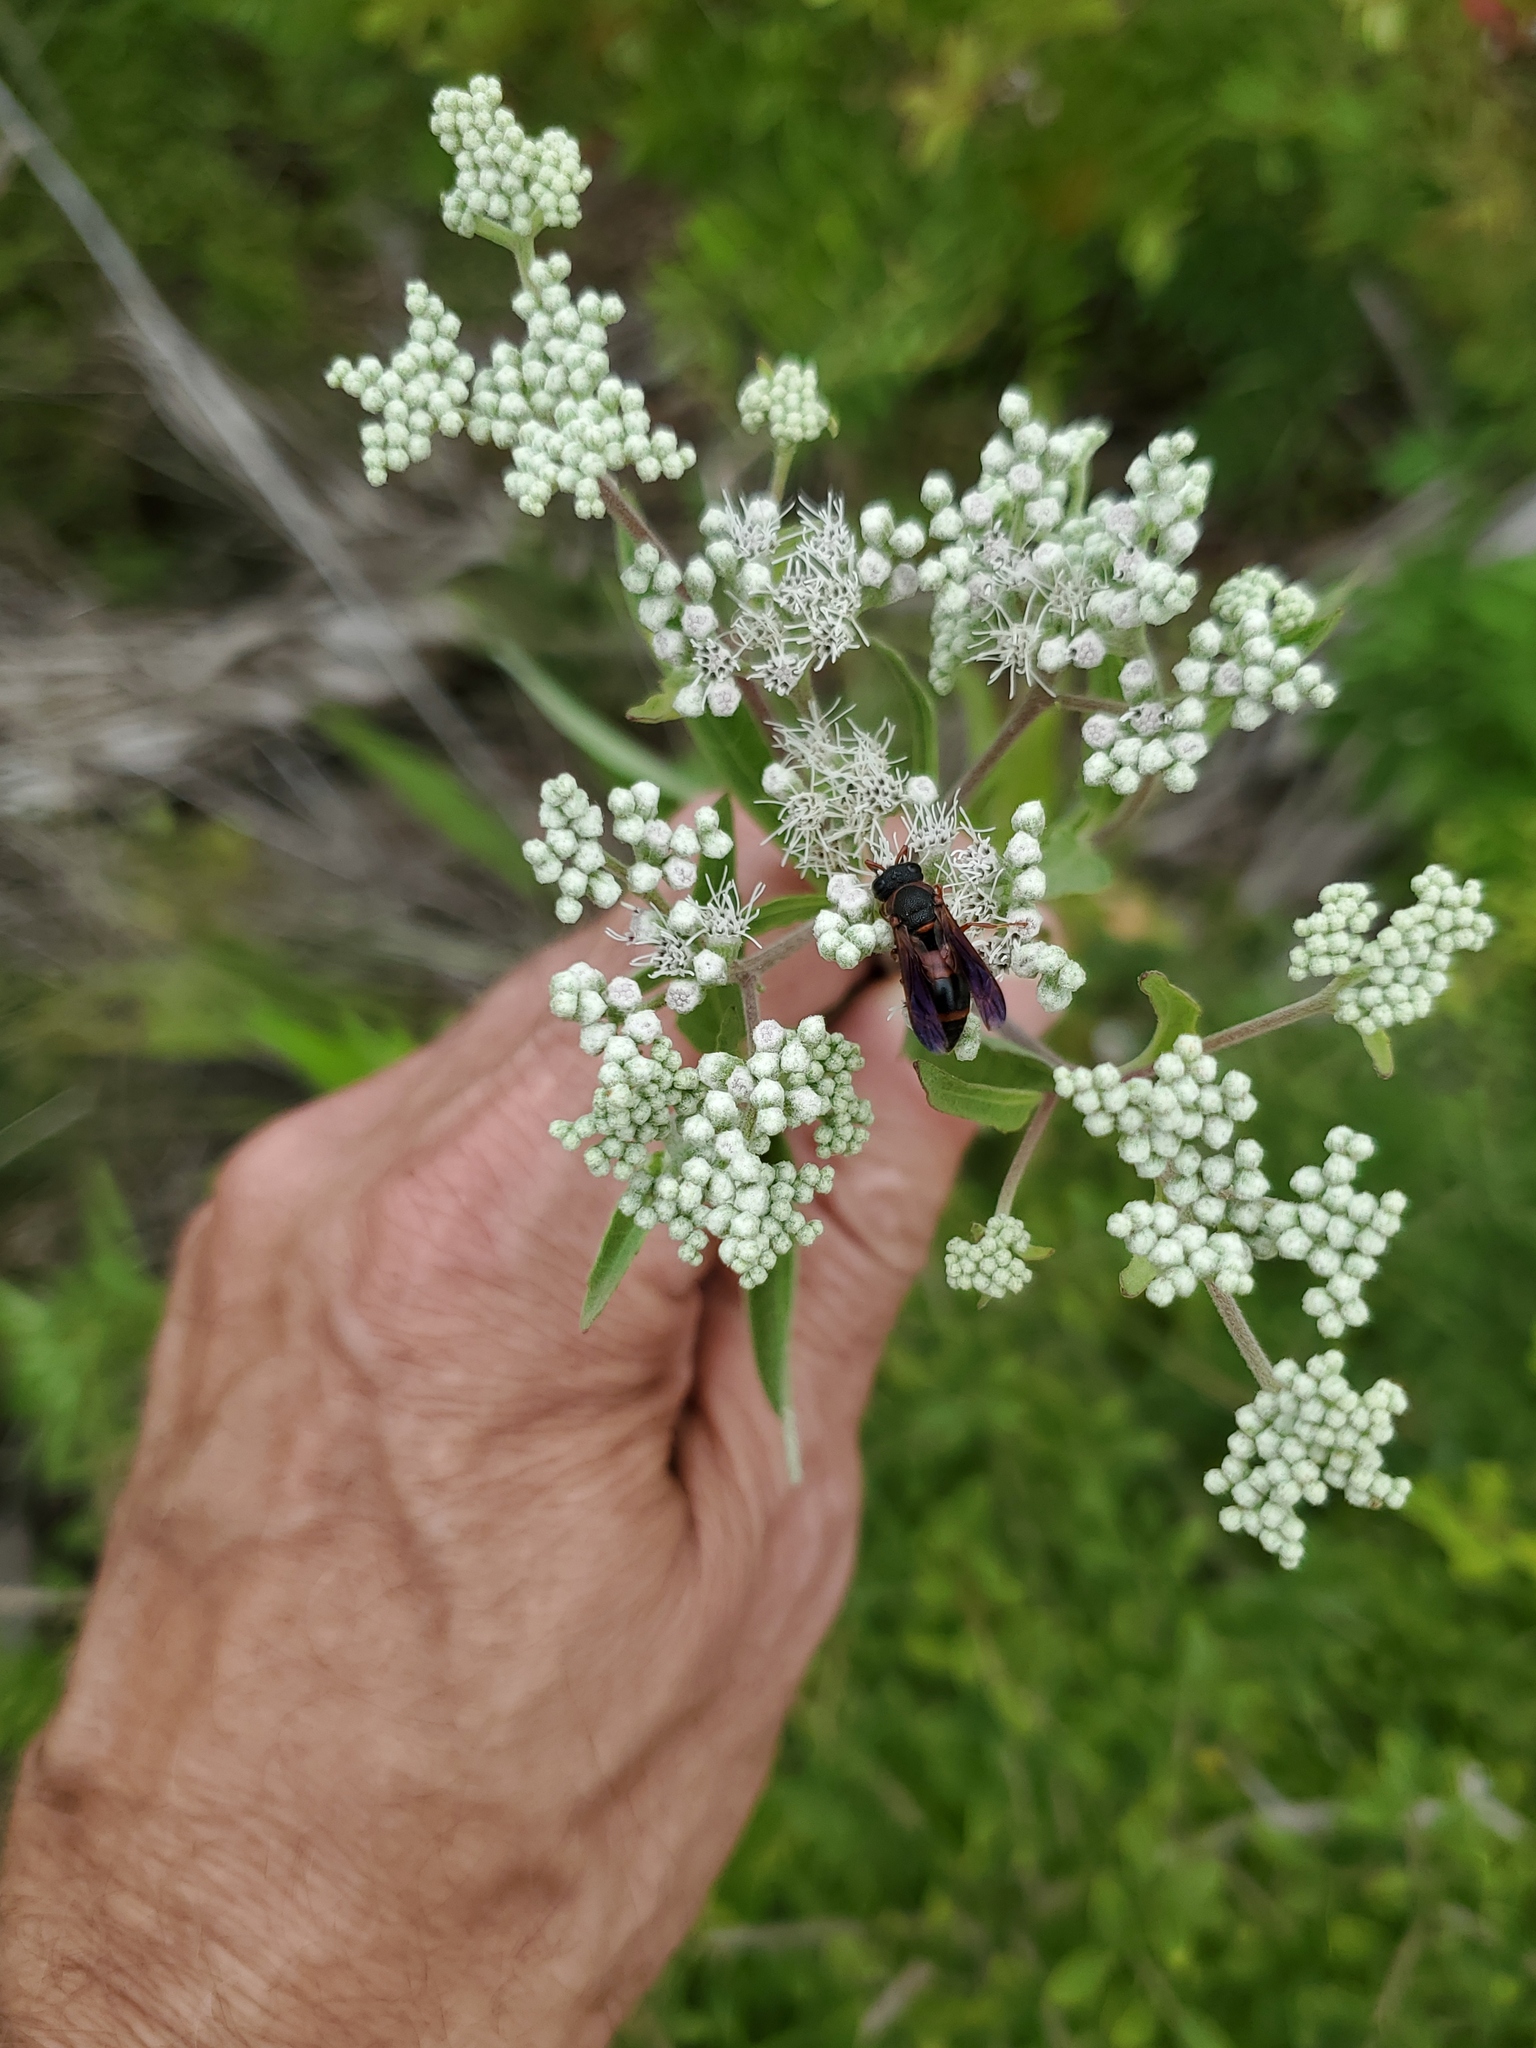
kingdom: Animalia
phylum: Arthropoda
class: Insecta
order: Hymenoptera
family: Eumenidae
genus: Pachodynerus
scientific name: Pachodynerus erynnis
